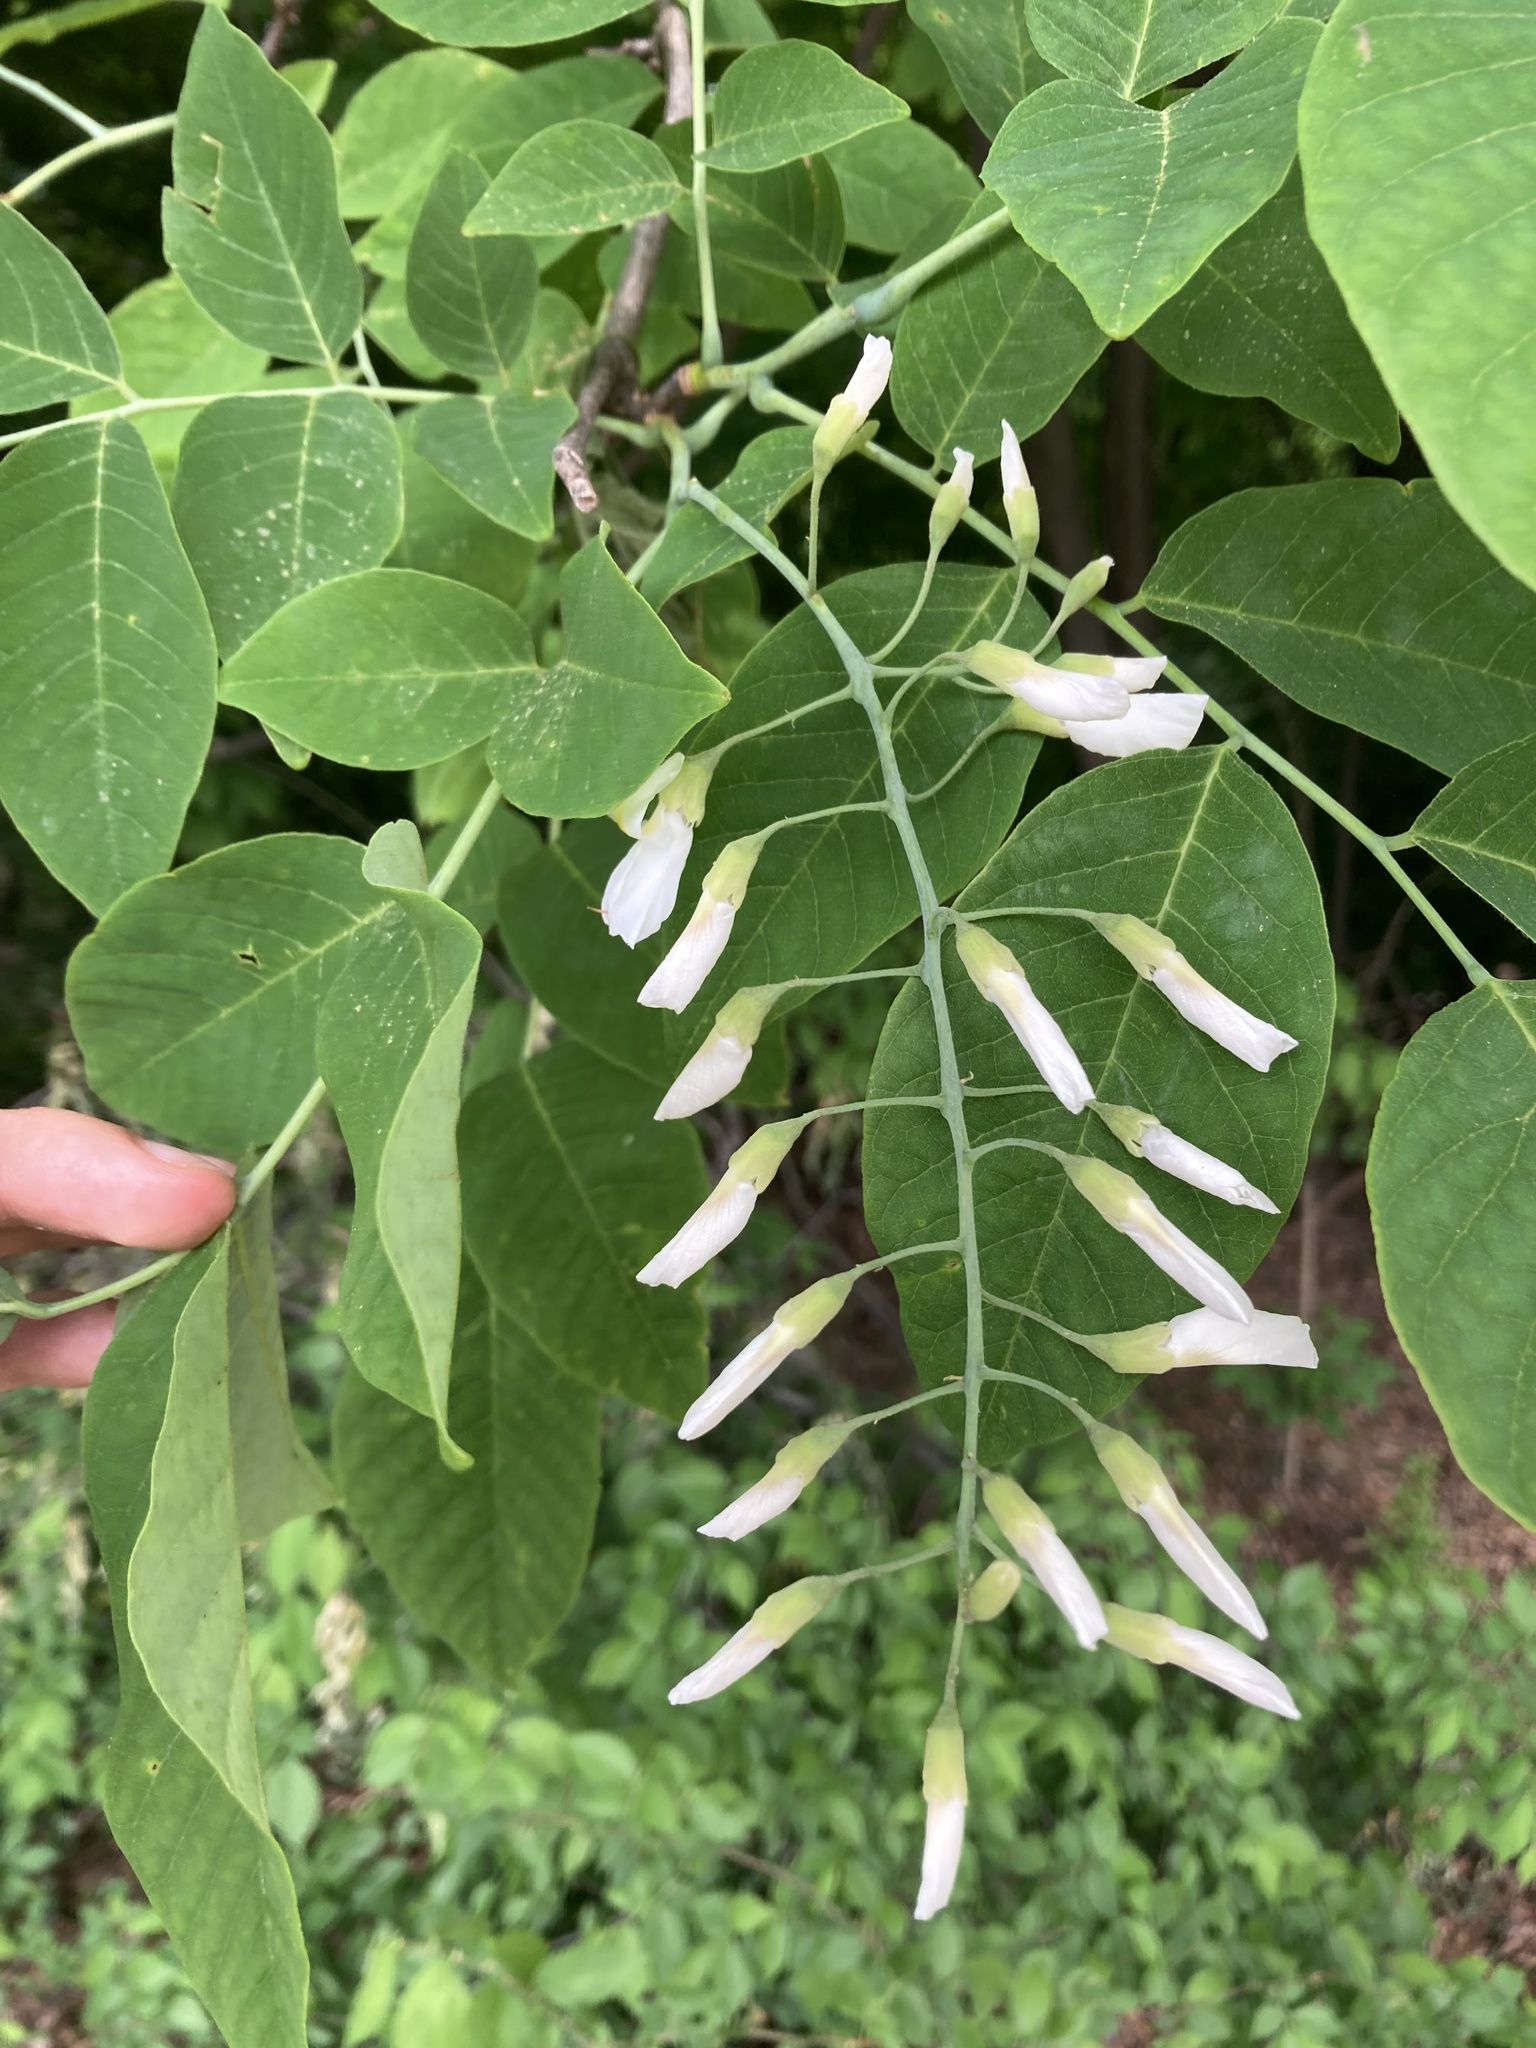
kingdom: Plantae
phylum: Tracheophyta
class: Magnoliopsida
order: Fabales
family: Fabaceae
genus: Cladrastis
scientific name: Cladrastis kentukea
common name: Kentucky yellow-wood
